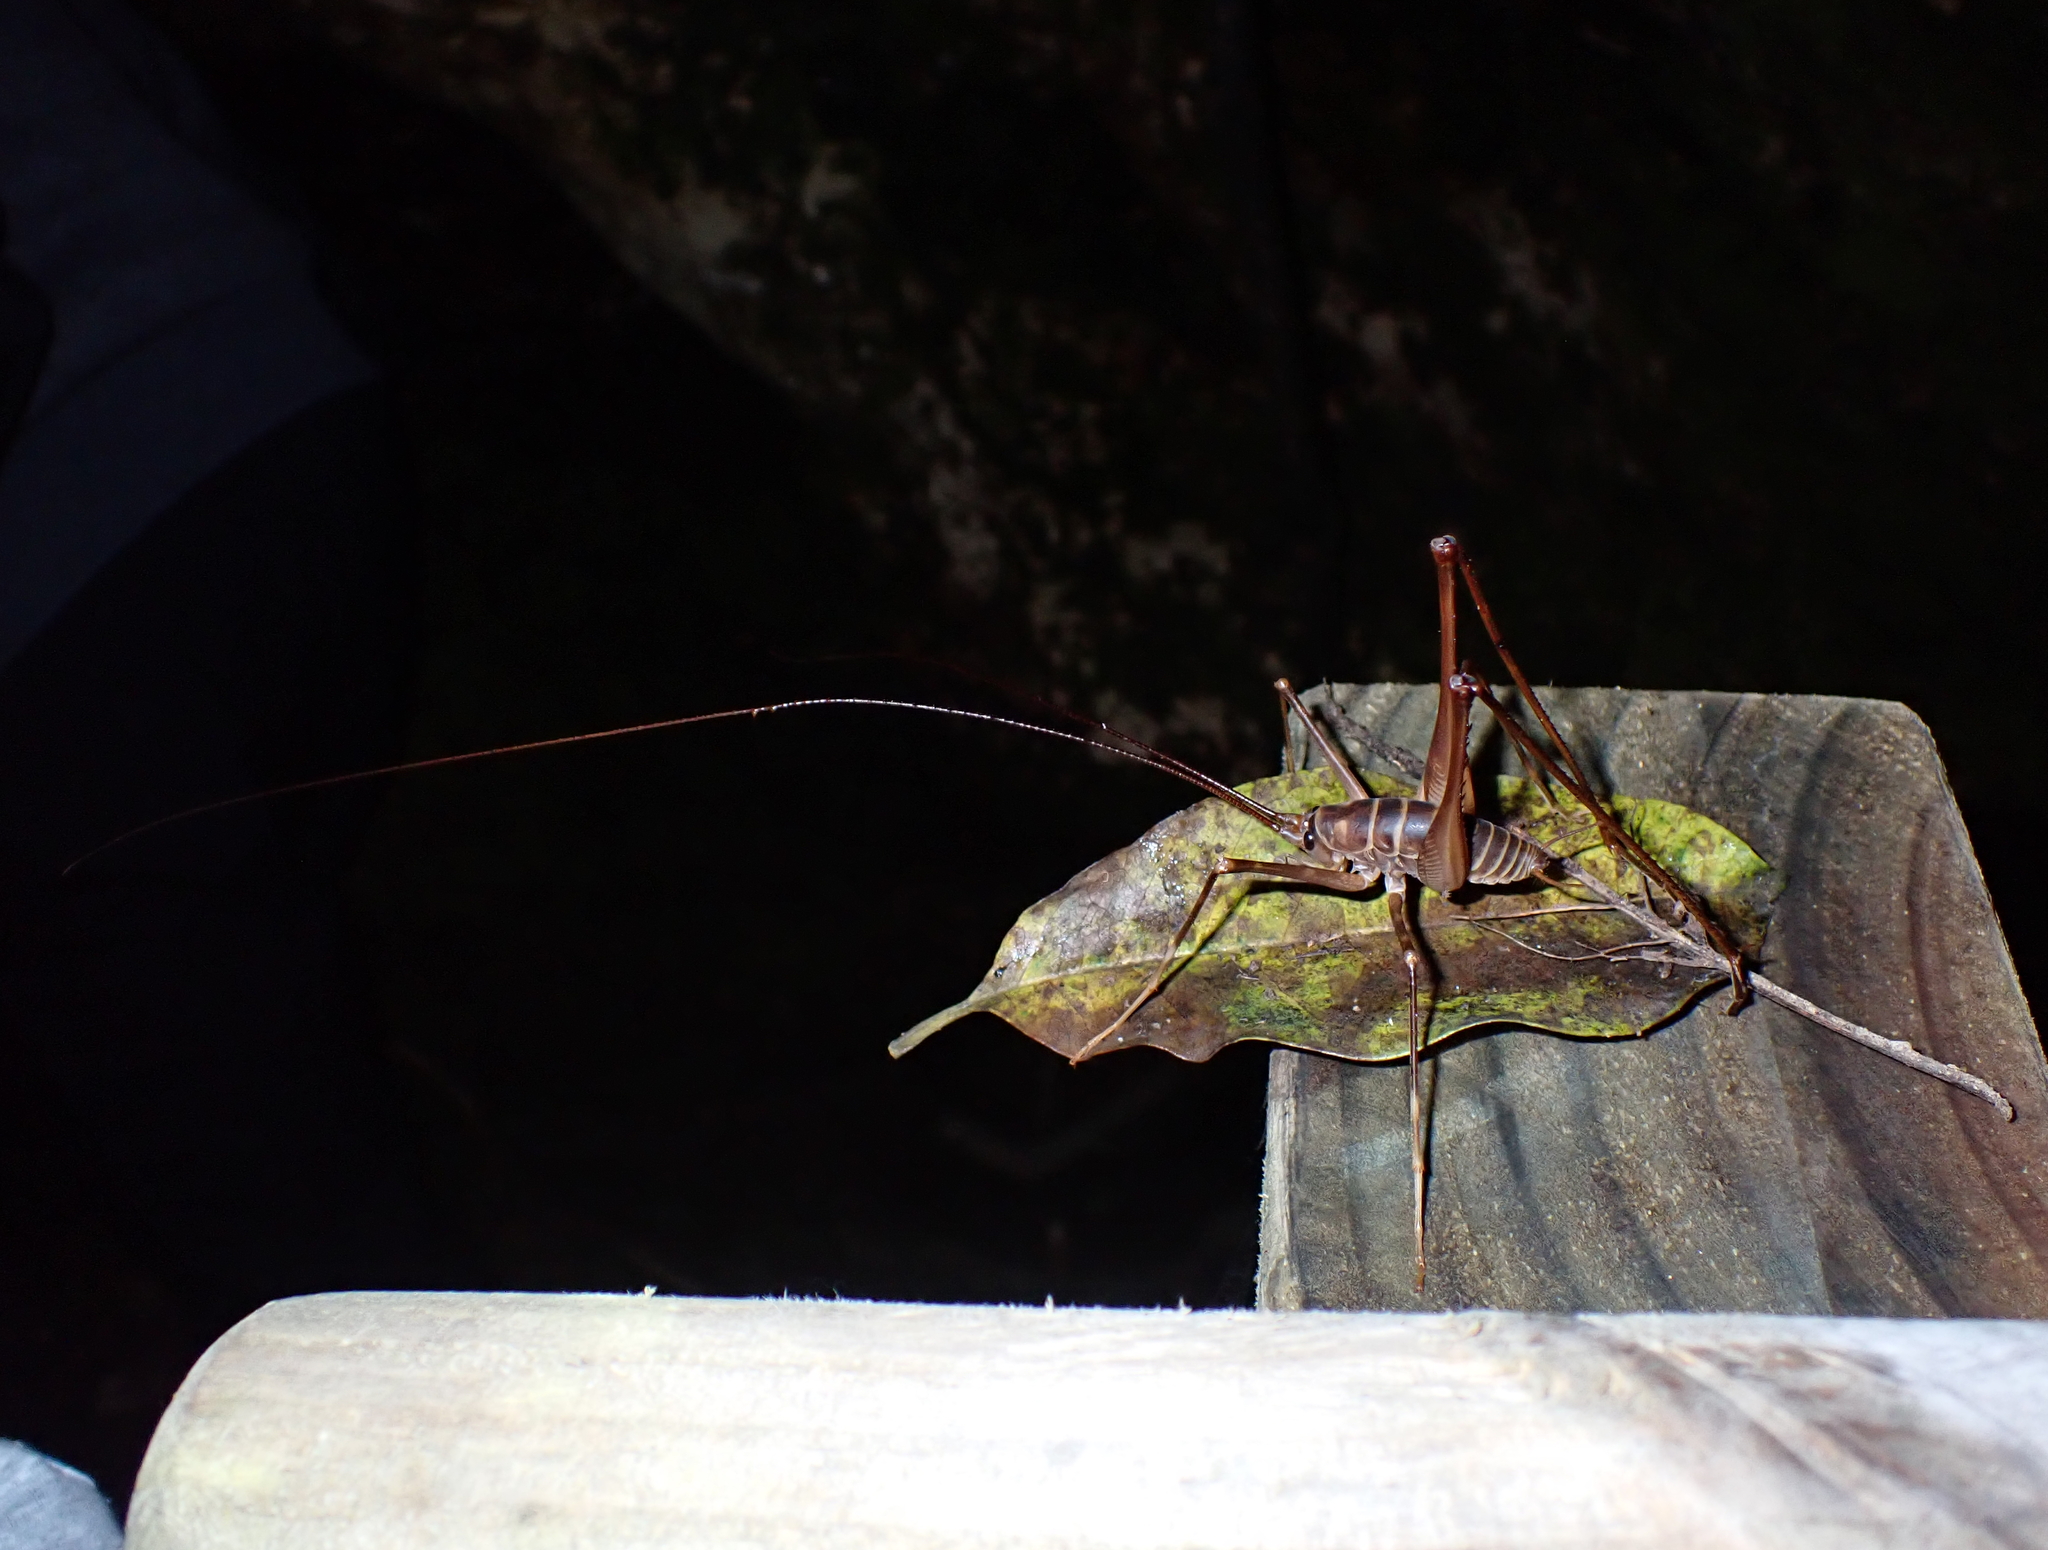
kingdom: Animalia
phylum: Arthropoda
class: Insecta
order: Orthoptera
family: Rhaphidophoridae
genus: Pachyrhamma
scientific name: Pachyrhamma acanthocera
